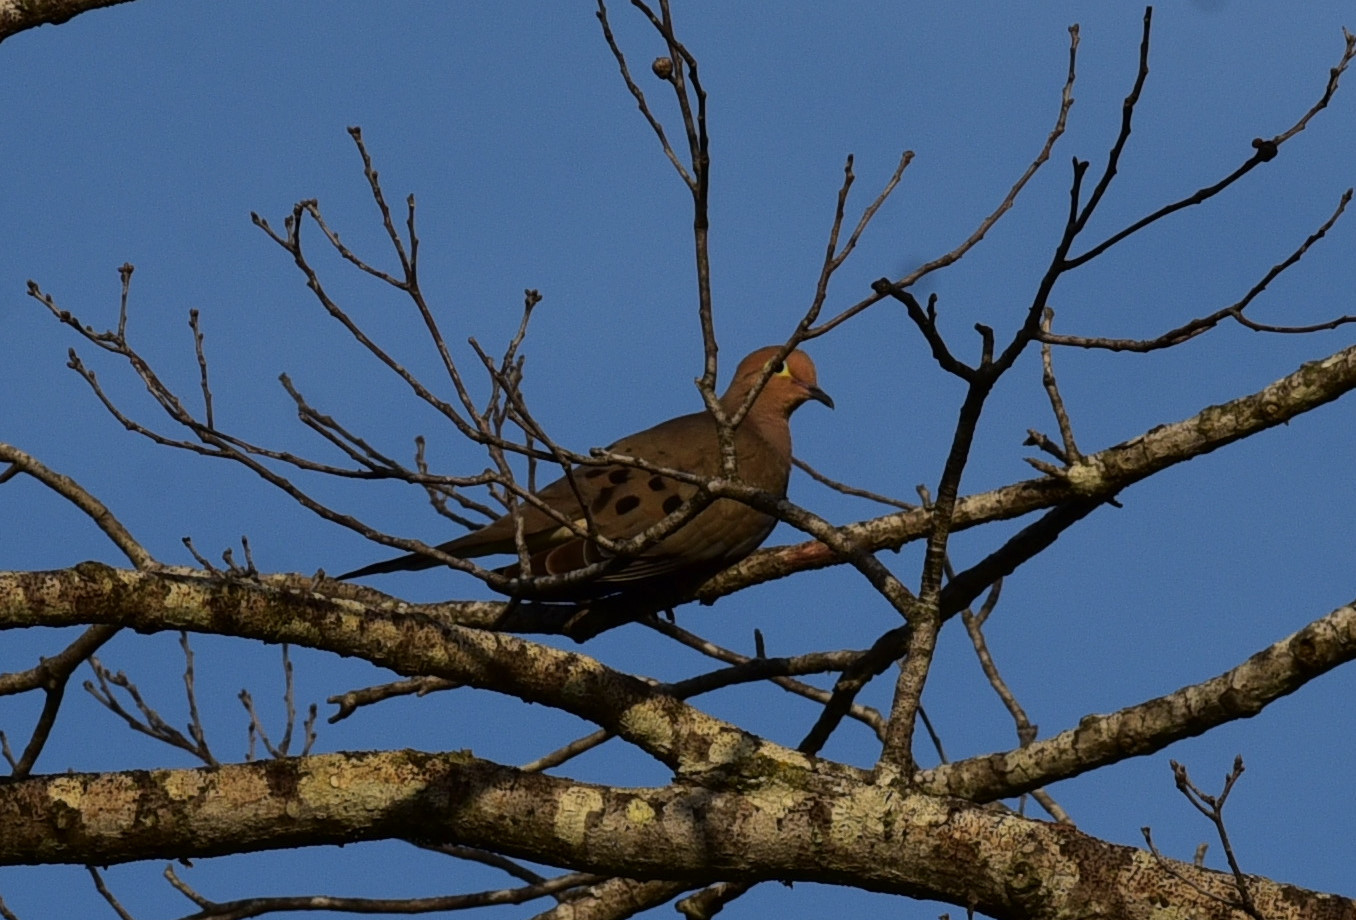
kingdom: Animalia
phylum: Chordata
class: Aves
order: Columbiformes
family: Columbidae
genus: Zenaida
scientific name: Zenaida macroura
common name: Mourning dove
